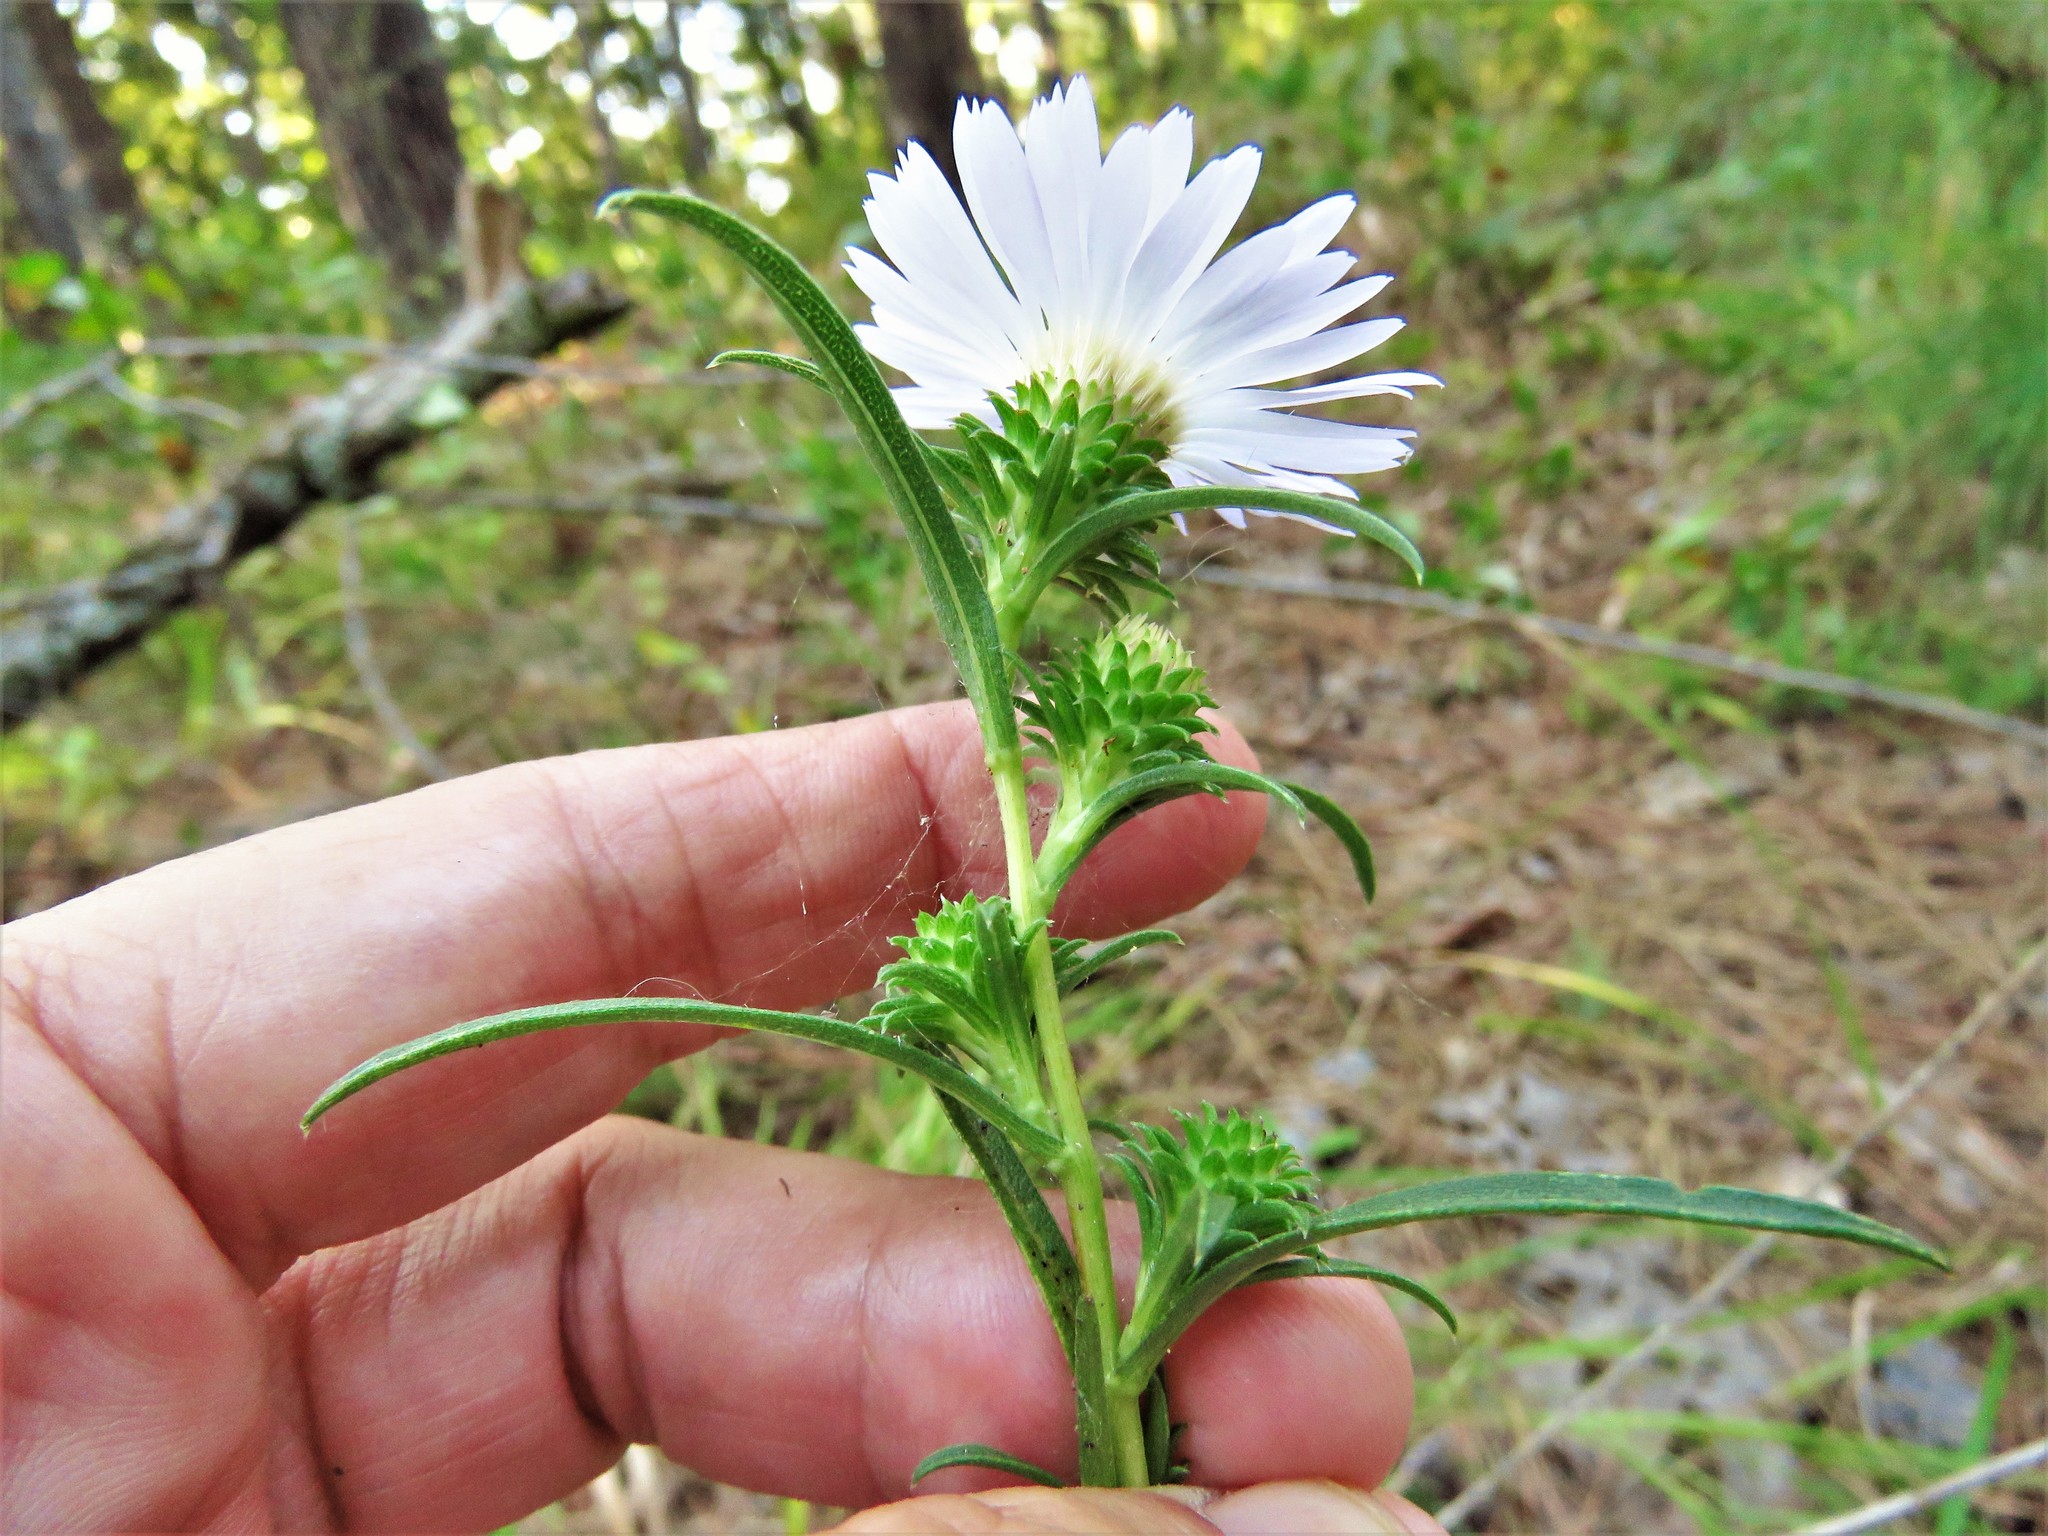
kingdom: Plantae
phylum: Tracheophyta
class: Magnoliopsida
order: Asterales
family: Asteraceae
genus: Eurybia
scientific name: Eurybia hemispherica
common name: Showy aster
